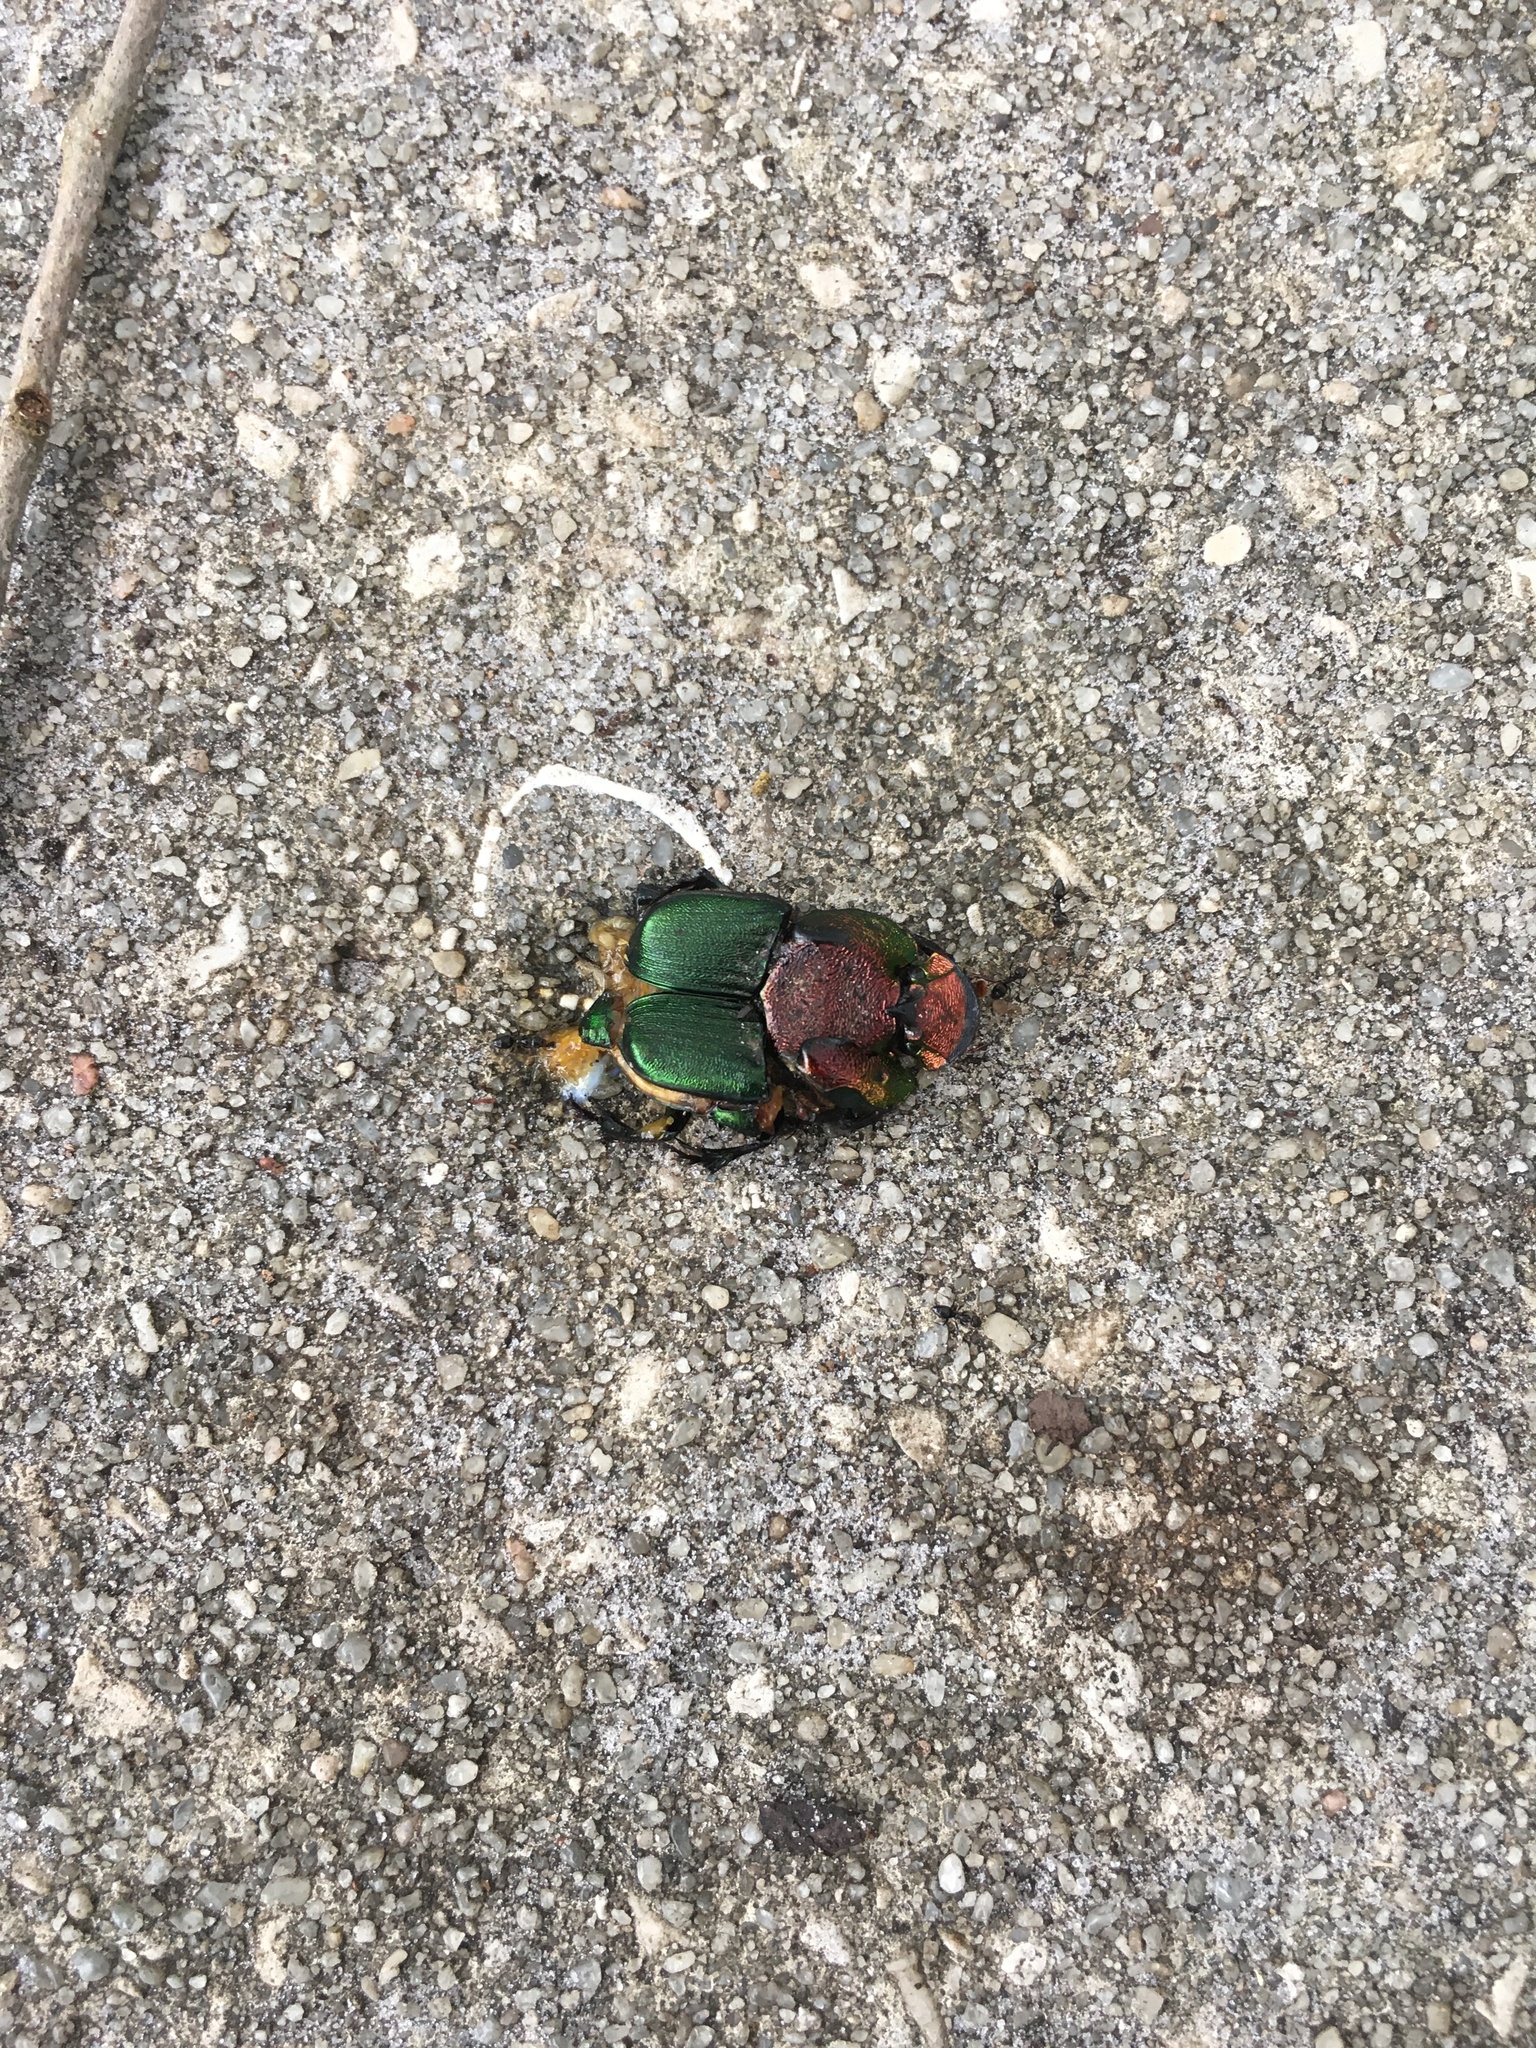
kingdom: Animalia
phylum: Arthropoda
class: Insecta
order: Coleoptera
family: Scarabaeidae
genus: Phanaeus
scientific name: Phanaeus vindex
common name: Rainbow scarab
